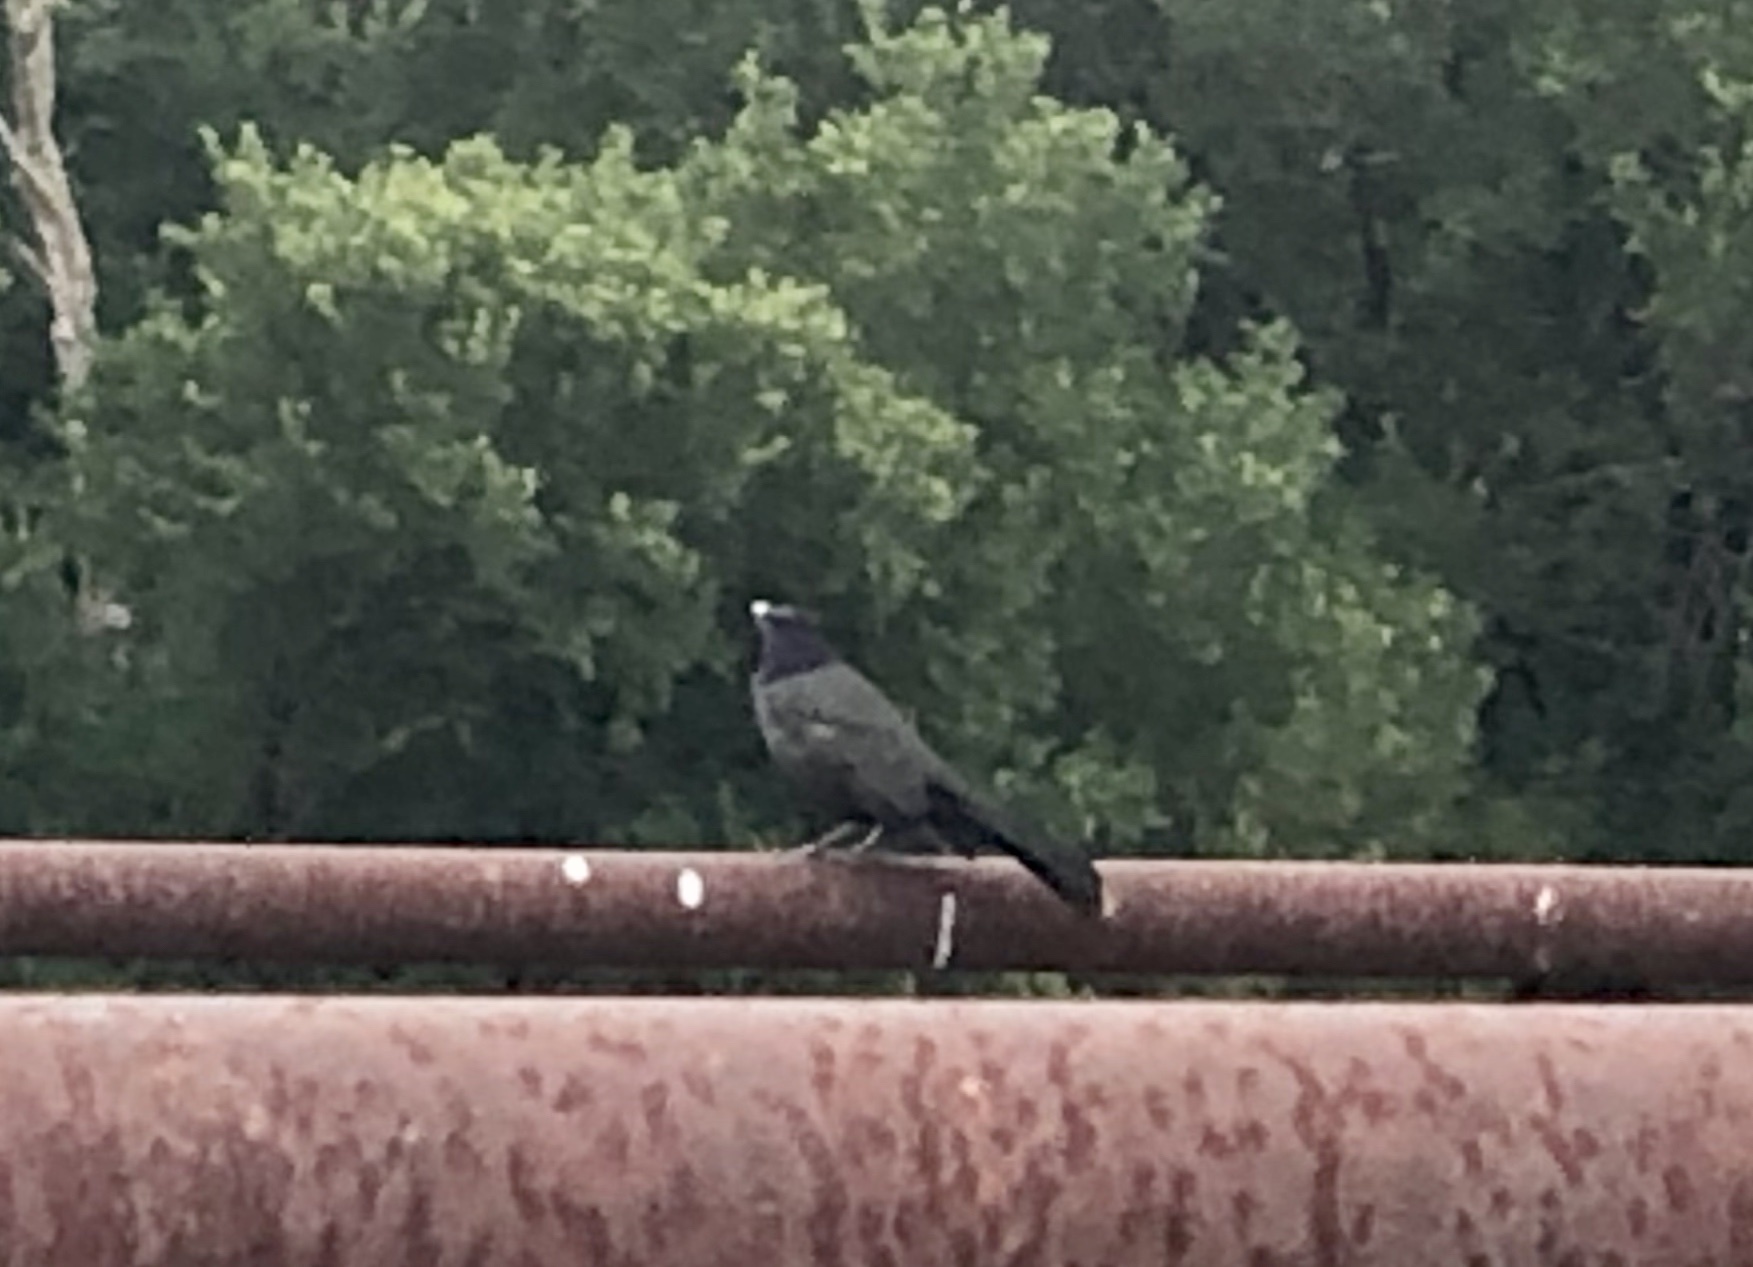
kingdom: Animalia
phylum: Chordata
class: Aves
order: Passeriformes
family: Icteridae
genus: Quiscalus
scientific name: Quiscalus mexicanus
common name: Great-tailed grackle
